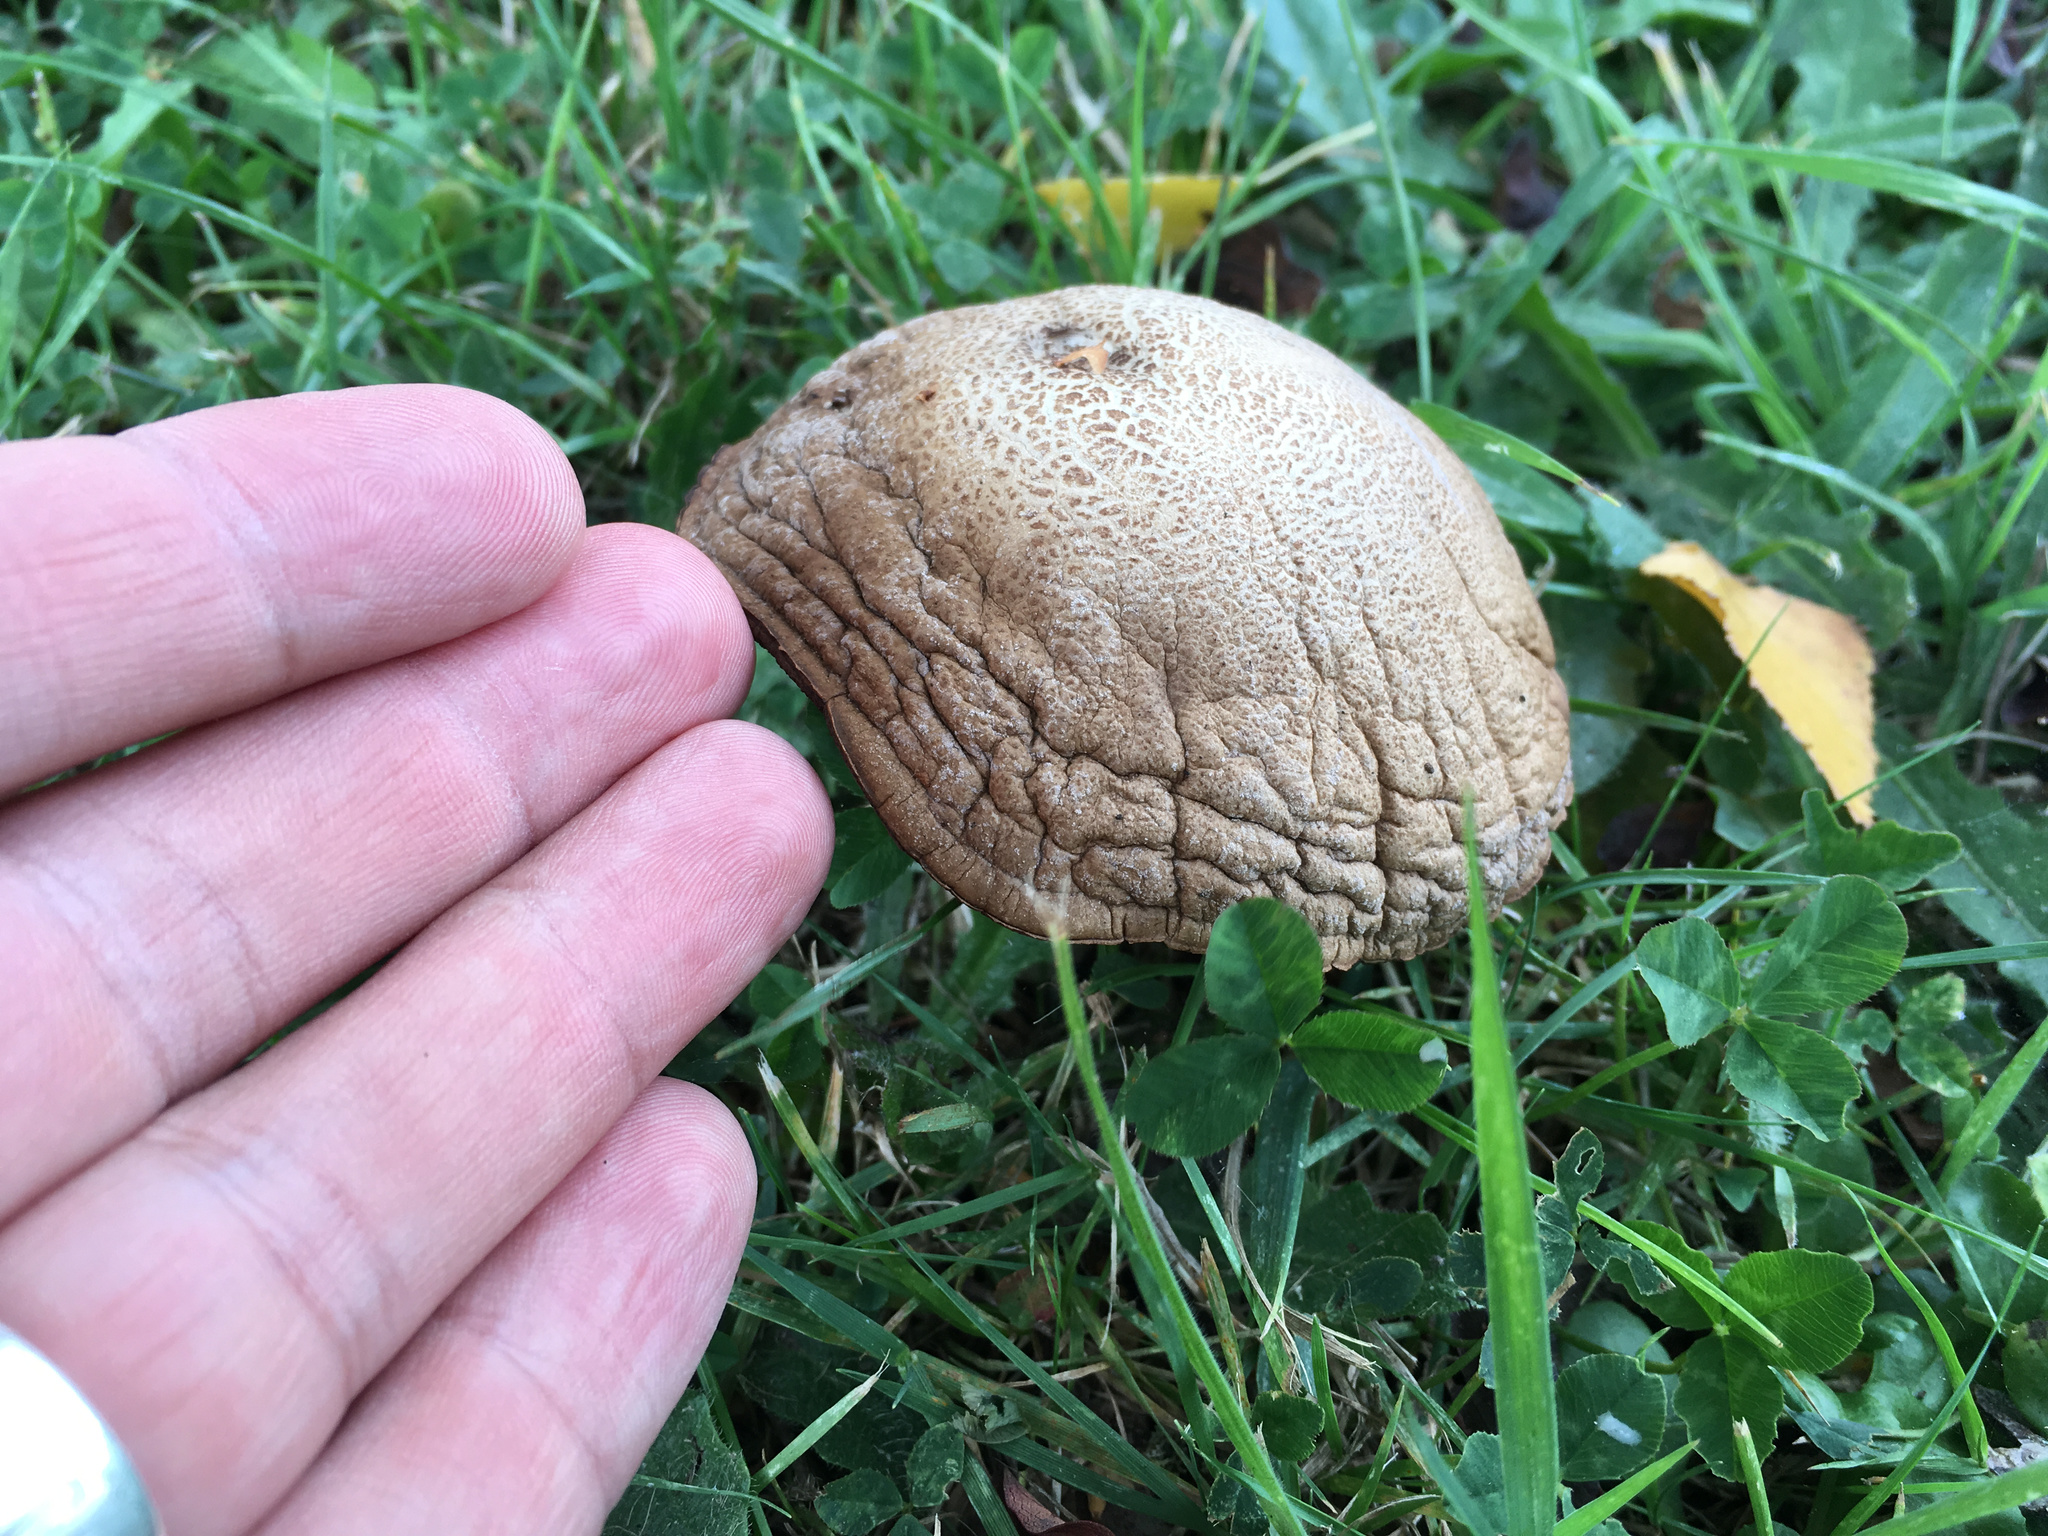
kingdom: Fungi
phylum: Basidiomycota
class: Agaricomycetes
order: Boletales
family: Boletaceae
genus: Leccinum
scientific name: Leccinum scabrum
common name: Blushing bolete
